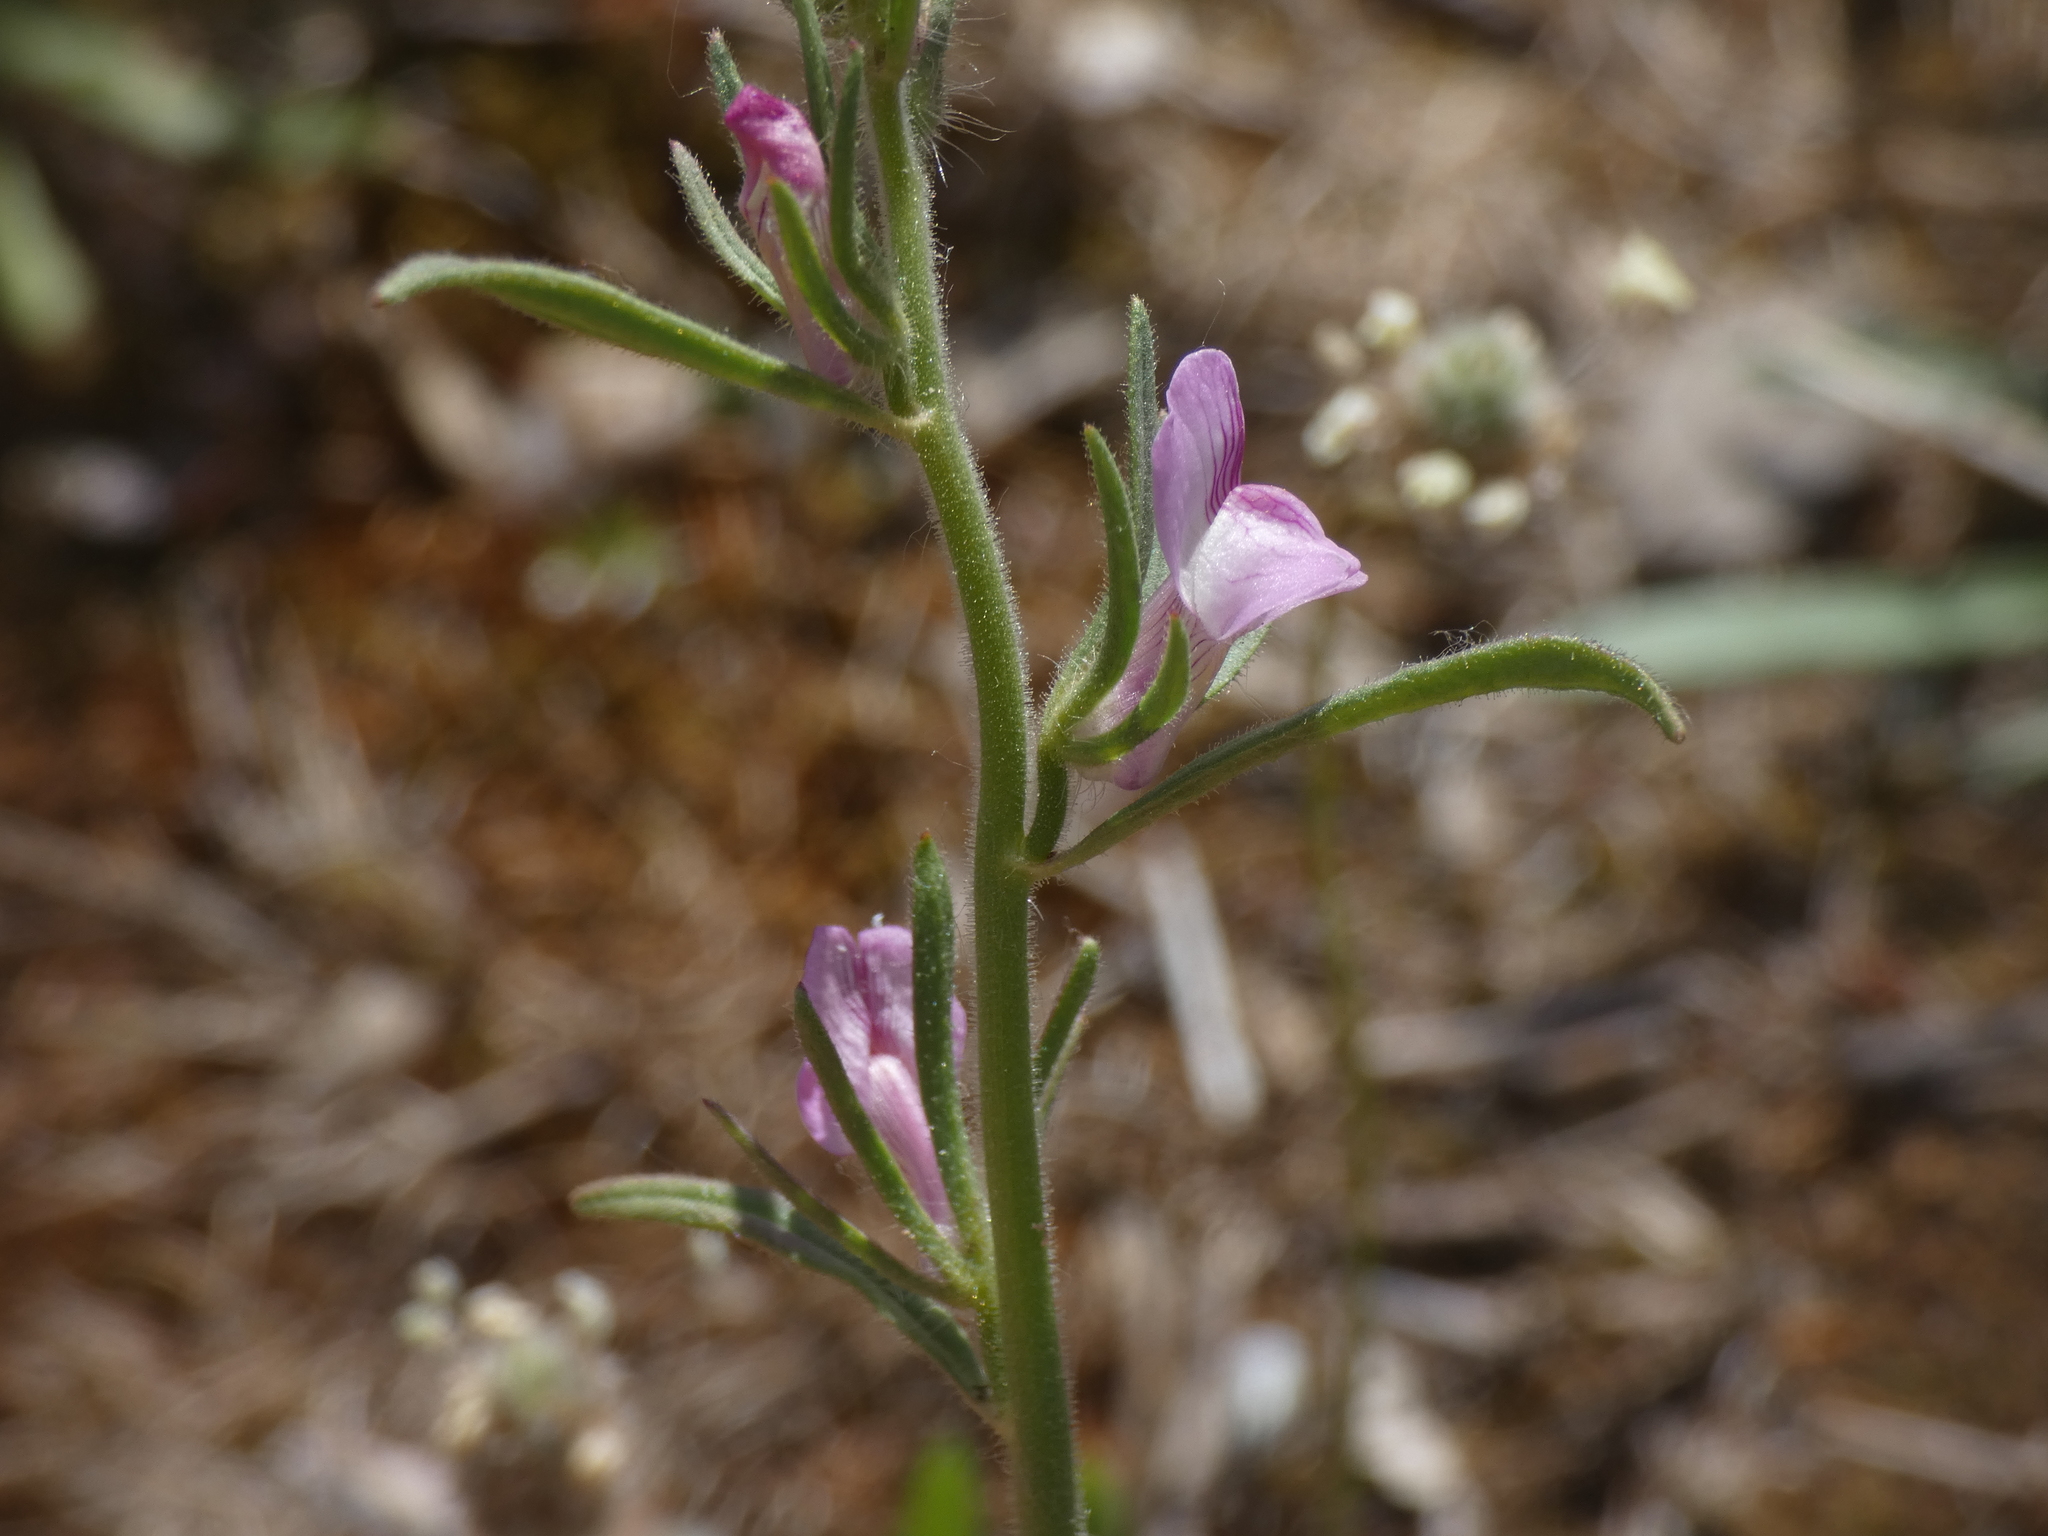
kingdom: Plantae
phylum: Tracheophyta
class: Magnoliopsida
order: Lamiales
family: Plantaginaceae
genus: Misopates
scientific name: Misopates orontium
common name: Weasel's-snout
